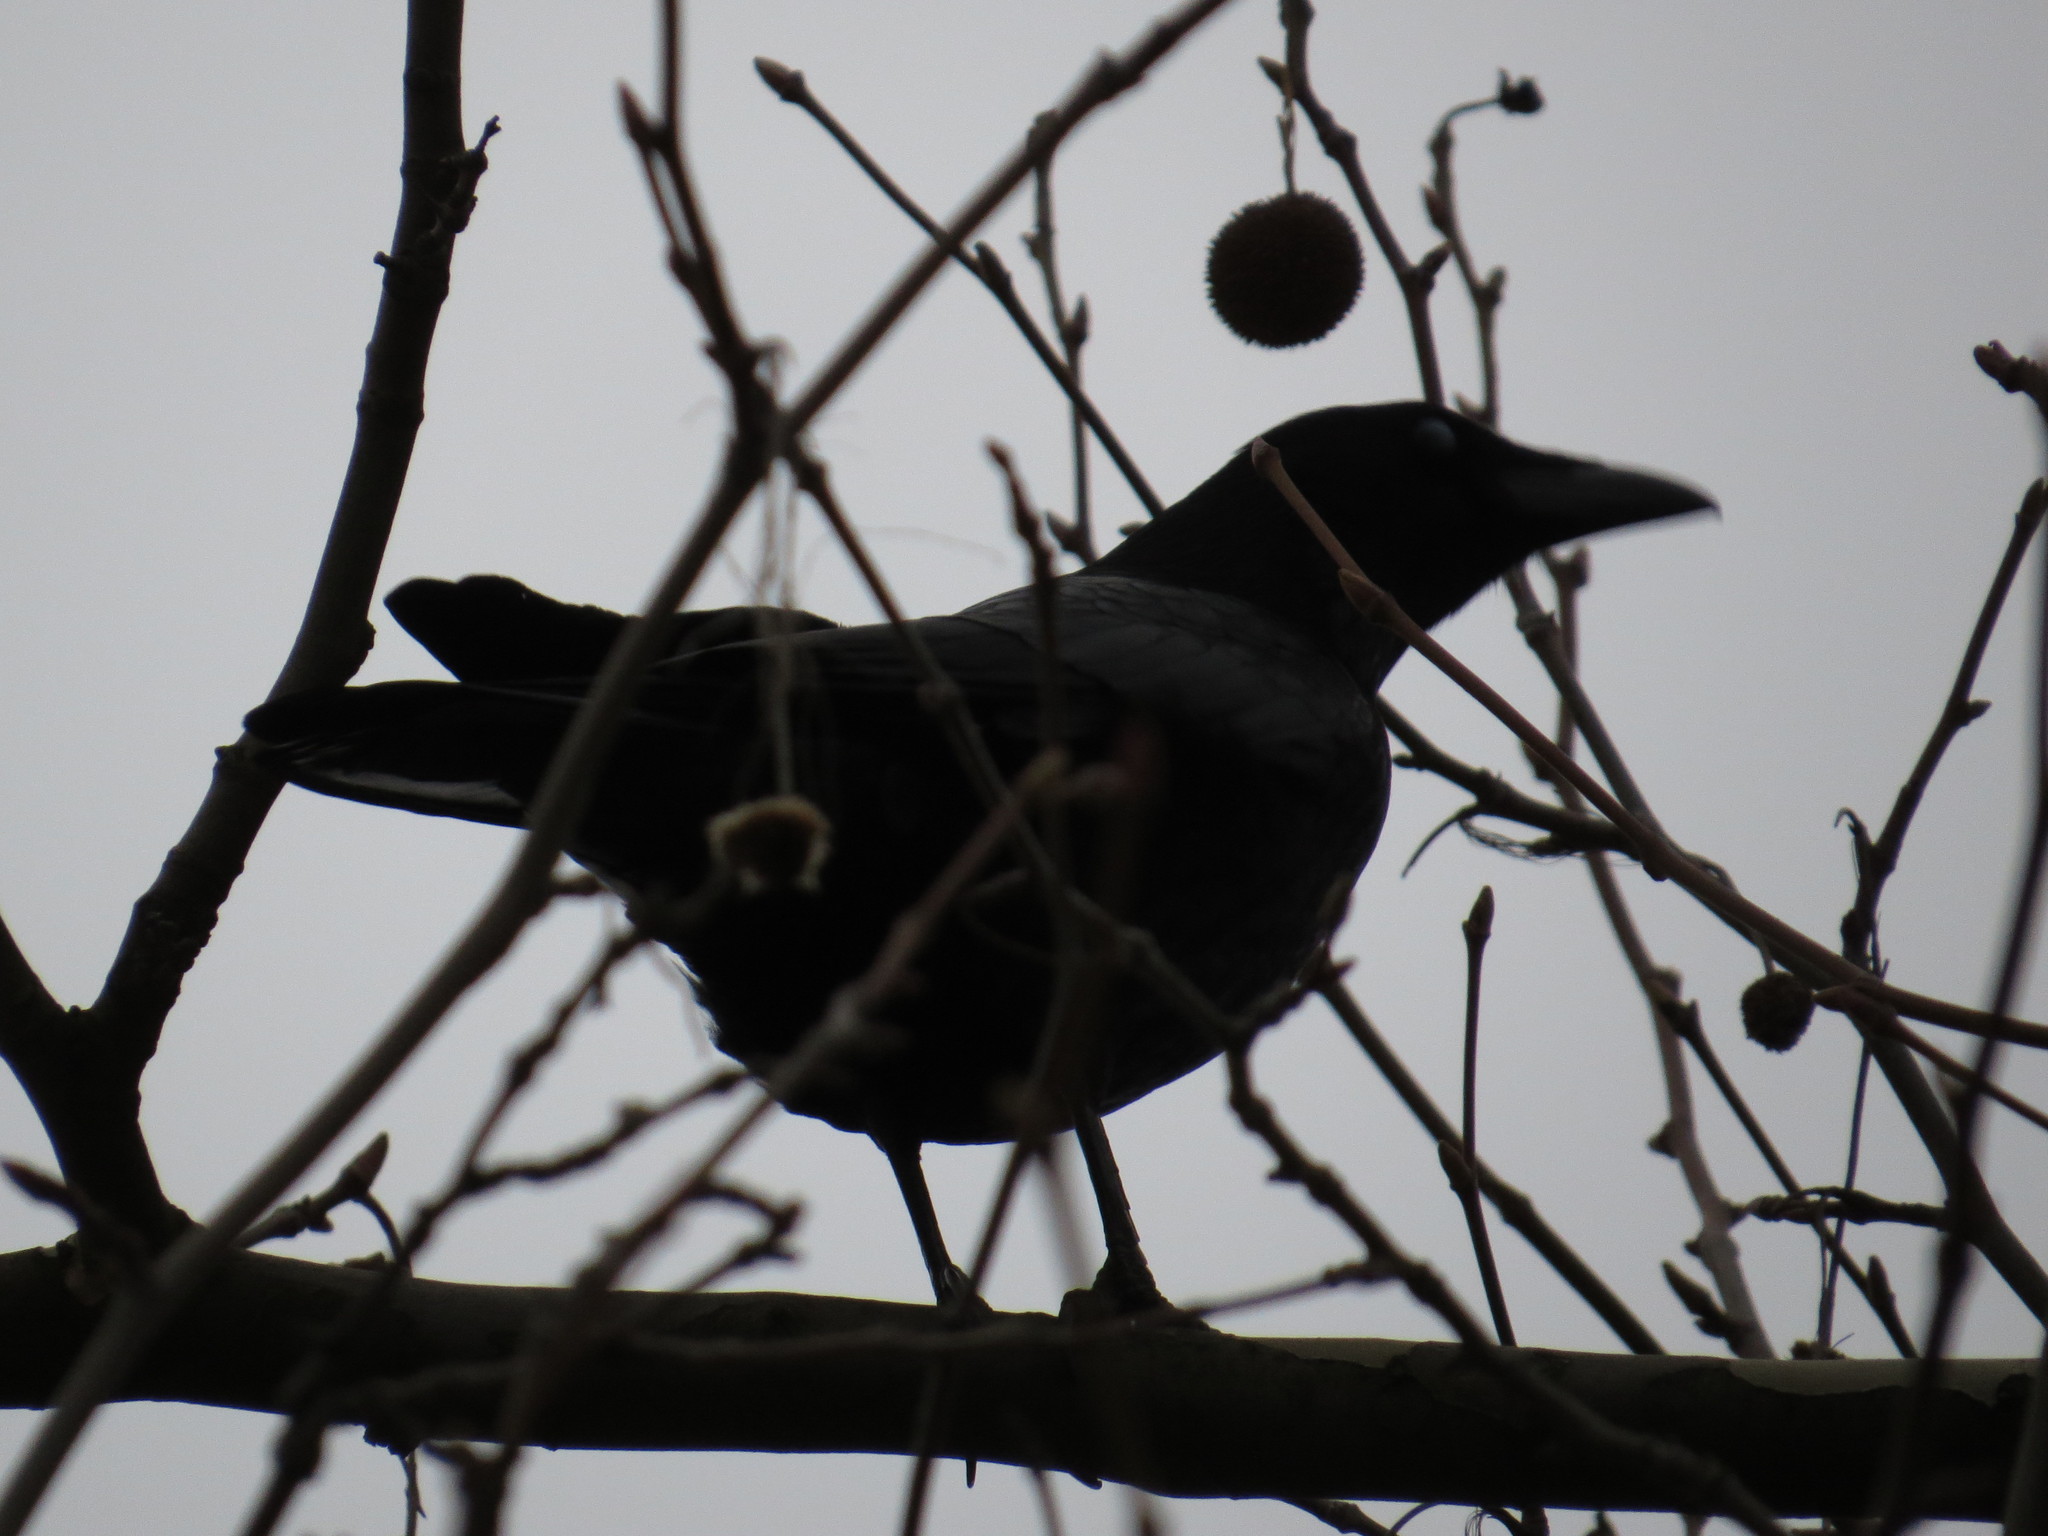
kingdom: Animalia
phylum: Chordata
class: Aves
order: Passeriformes
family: Corvidae
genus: Corvus
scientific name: Corvus corone
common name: Carrion crow
